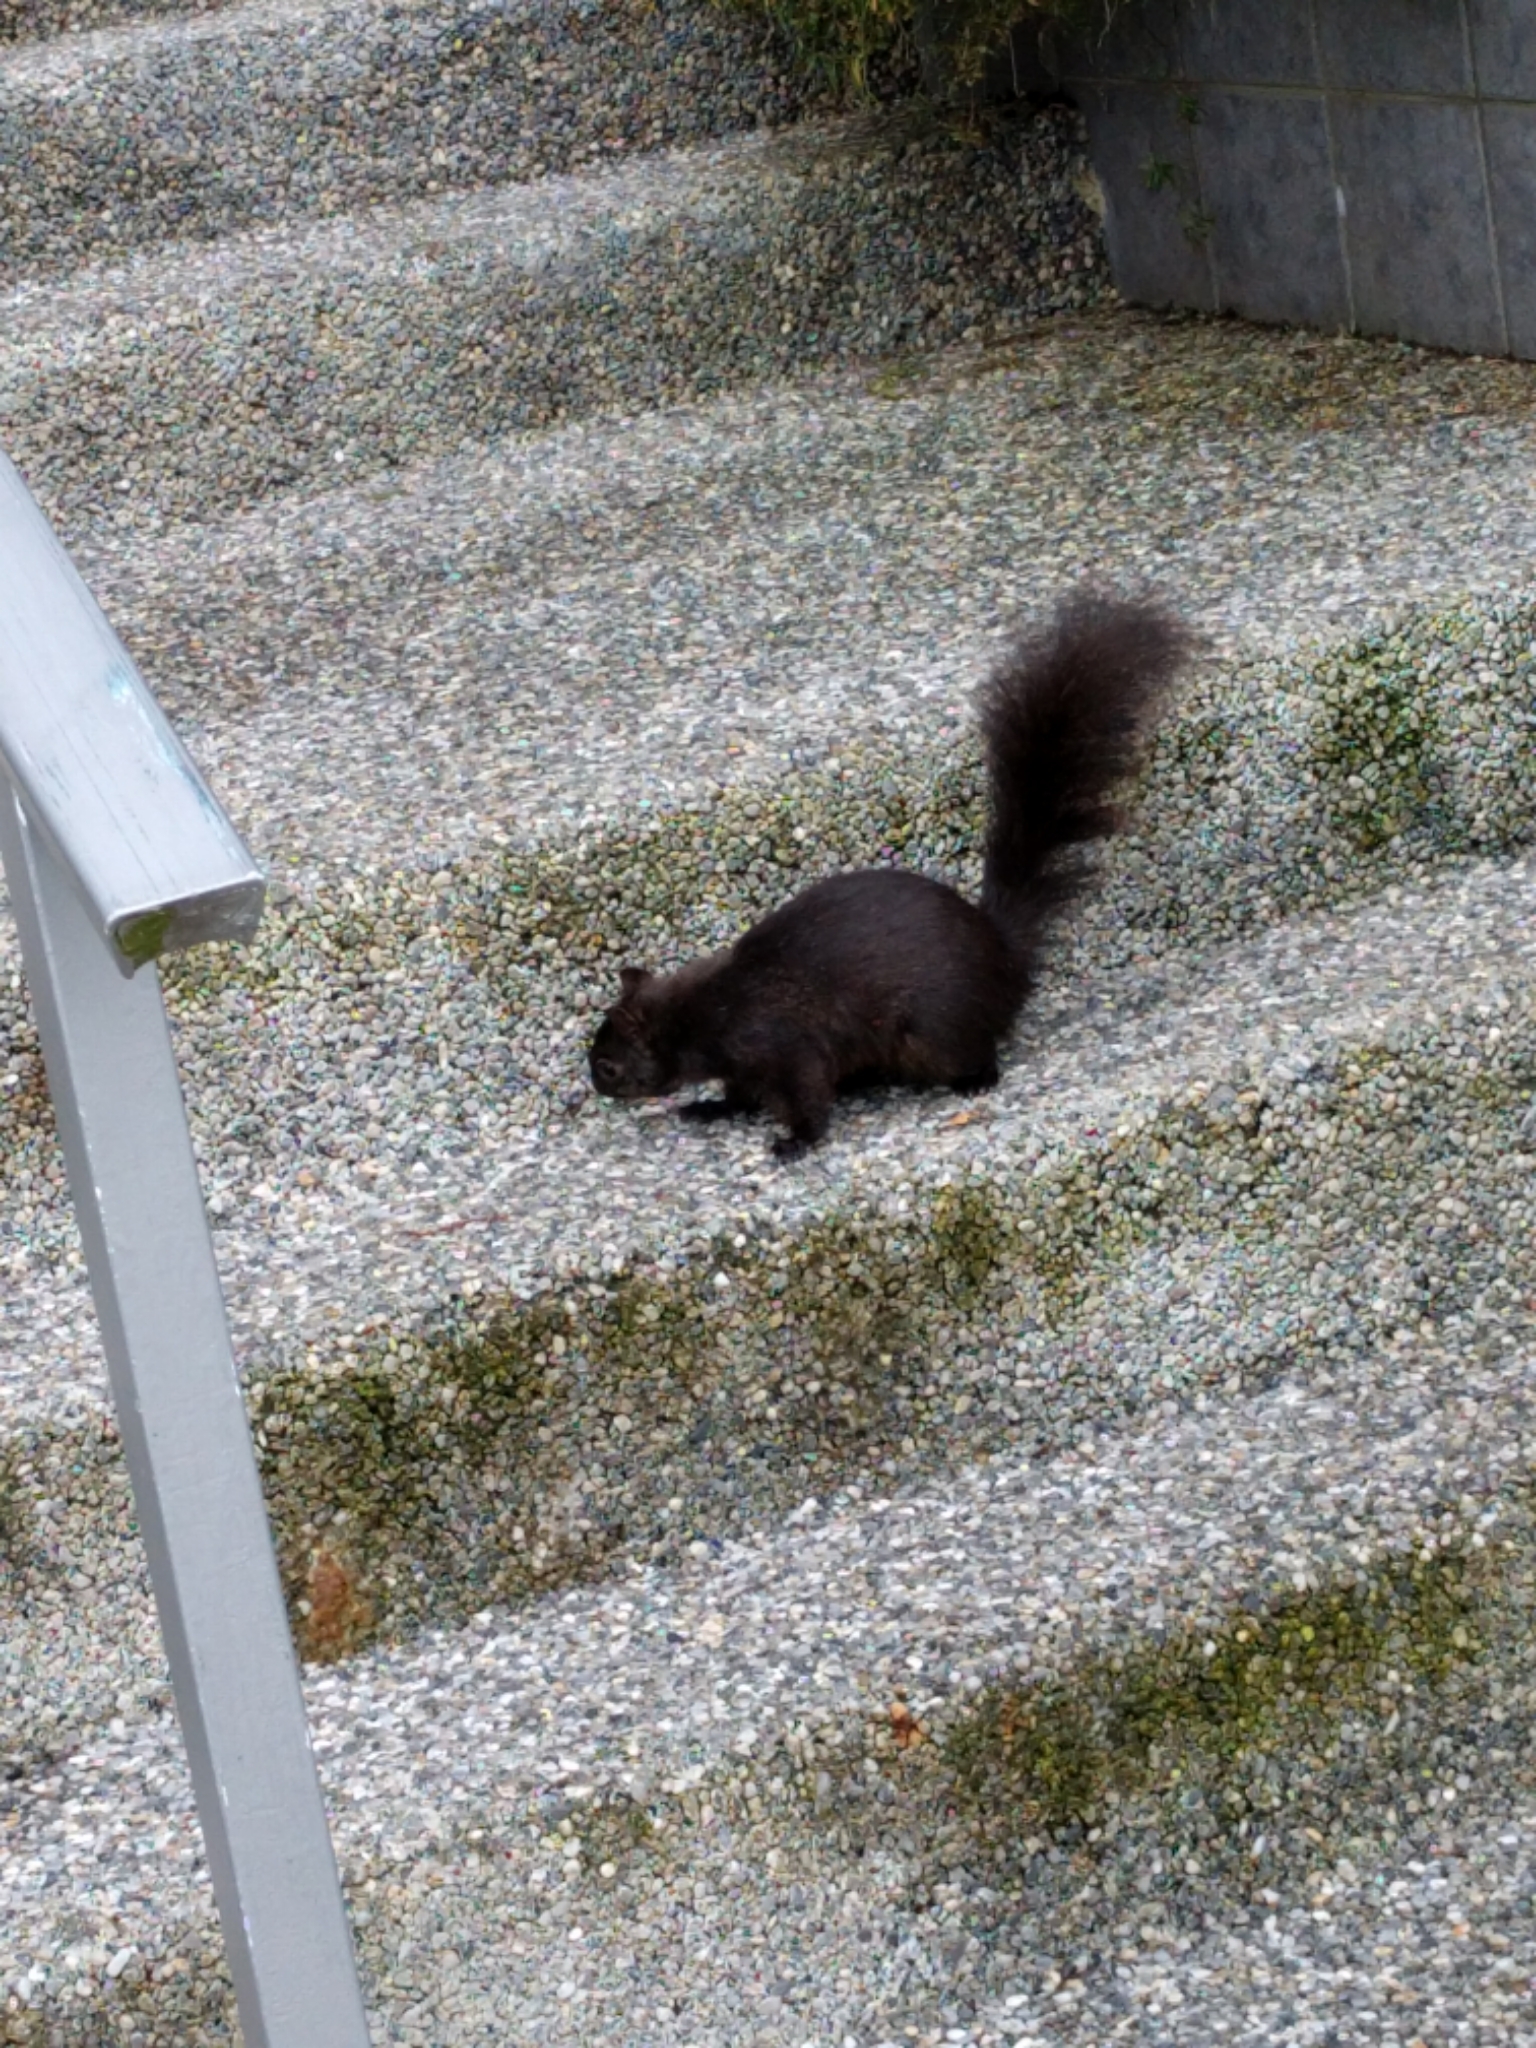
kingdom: Animalia
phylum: Chordata
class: Mammalia
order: Rodentia
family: Sciuridae
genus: Sciurus
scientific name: Sciurus carolinensis
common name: Eastern gray squirrel
